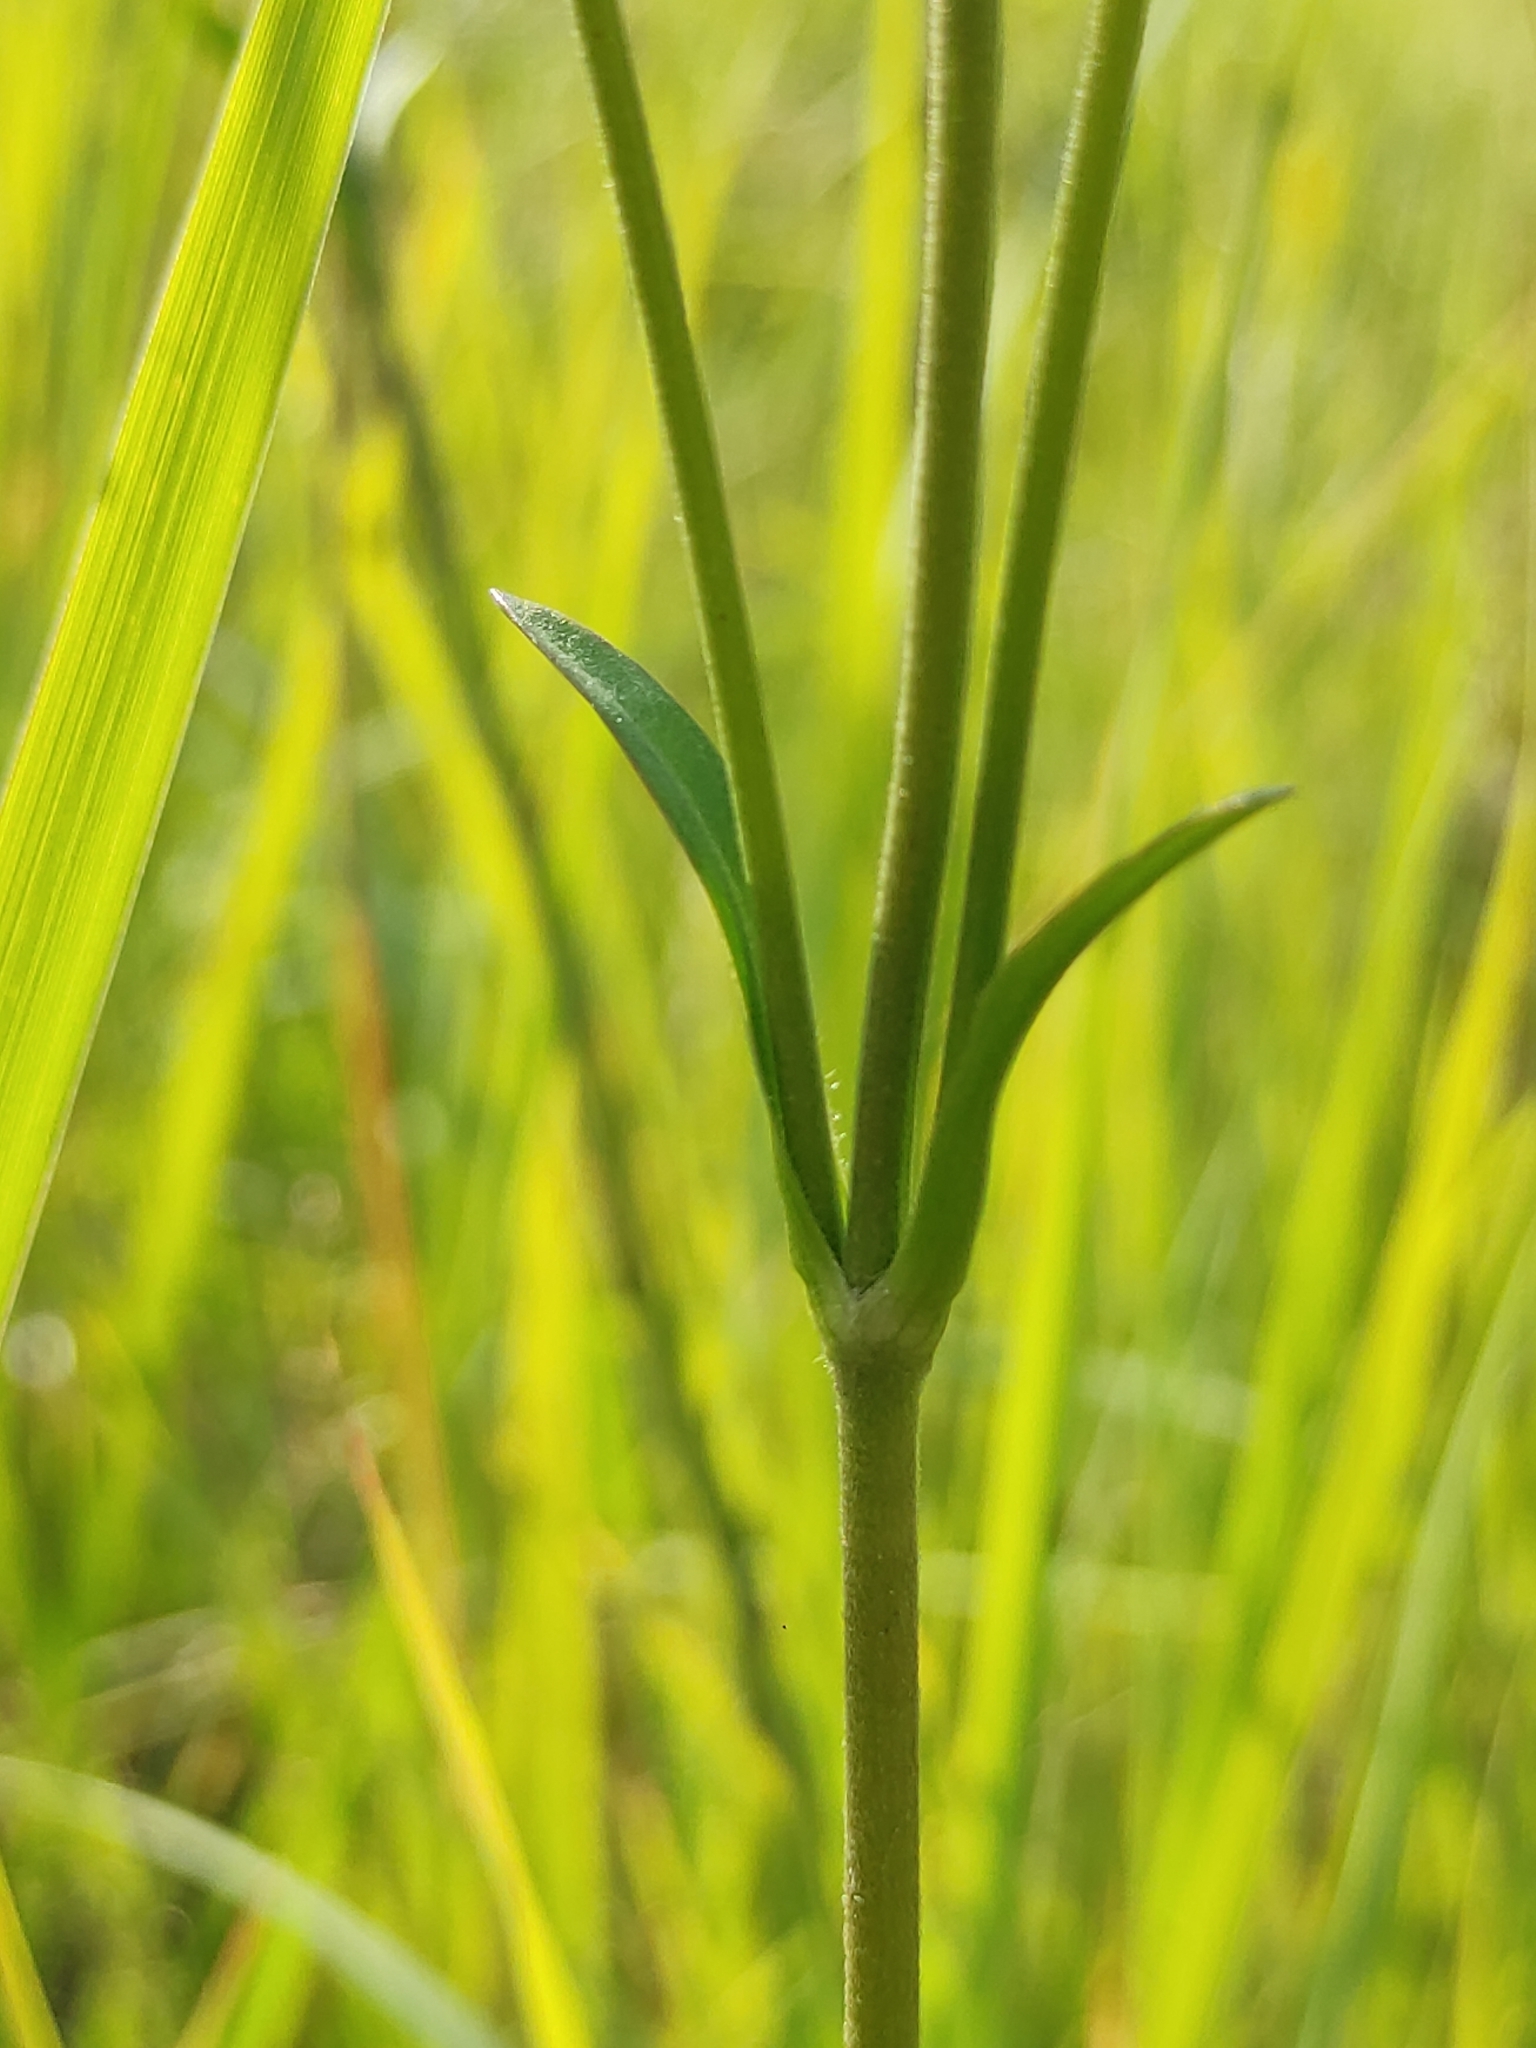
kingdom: Plantae
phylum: Tracheophyta
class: Magnoliopsida
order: Dipsacales
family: Caprifoliaceae
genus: Succisa
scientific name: Succisa pratensis
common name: Devil's-bit
